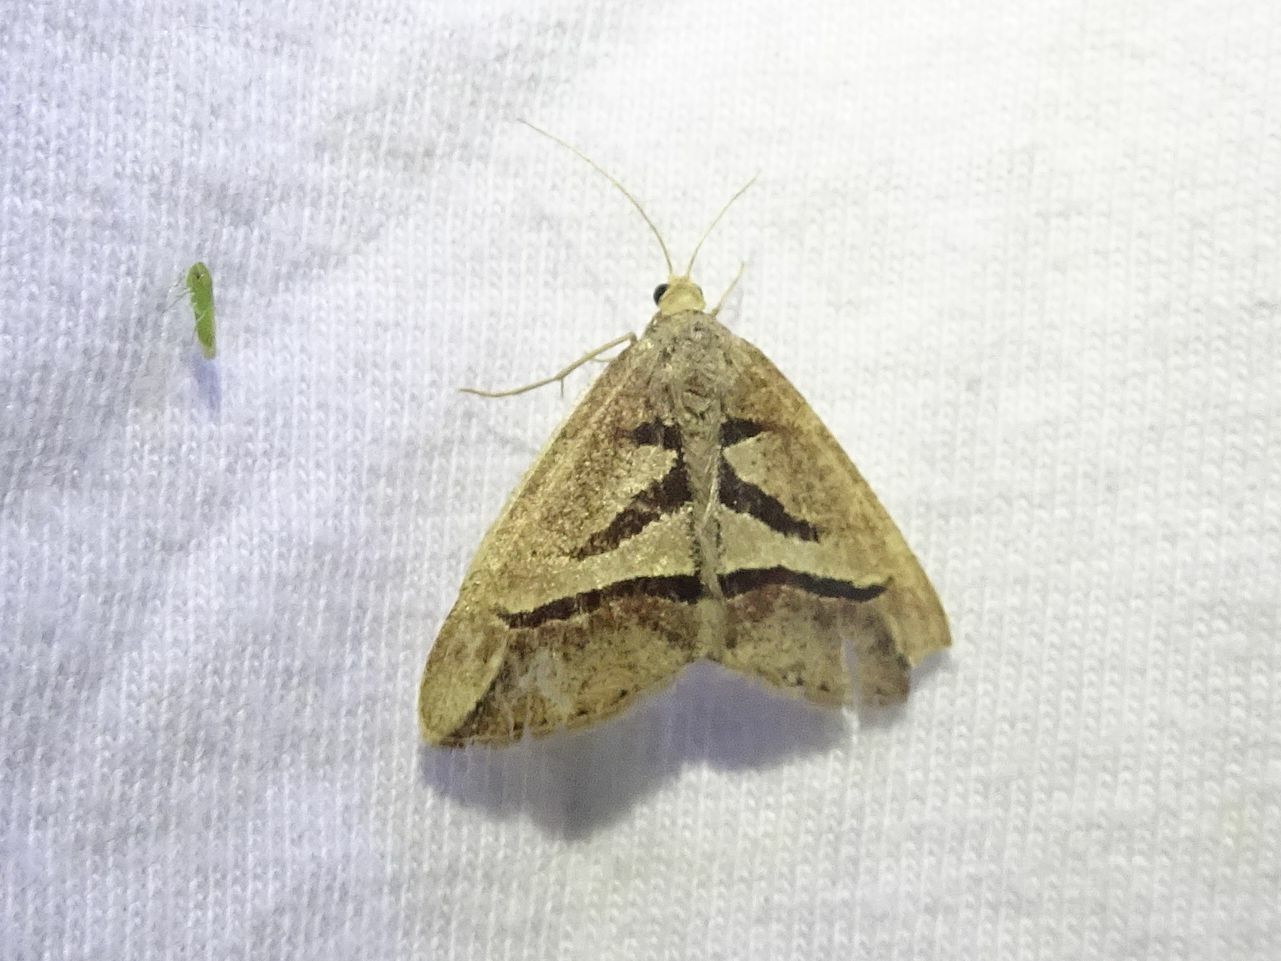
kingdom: Animalia
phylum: Arthropoda
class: Insecta
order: Lepidoptera
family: Geometridae
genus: Chiasmia
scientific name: Chiasmia observata
